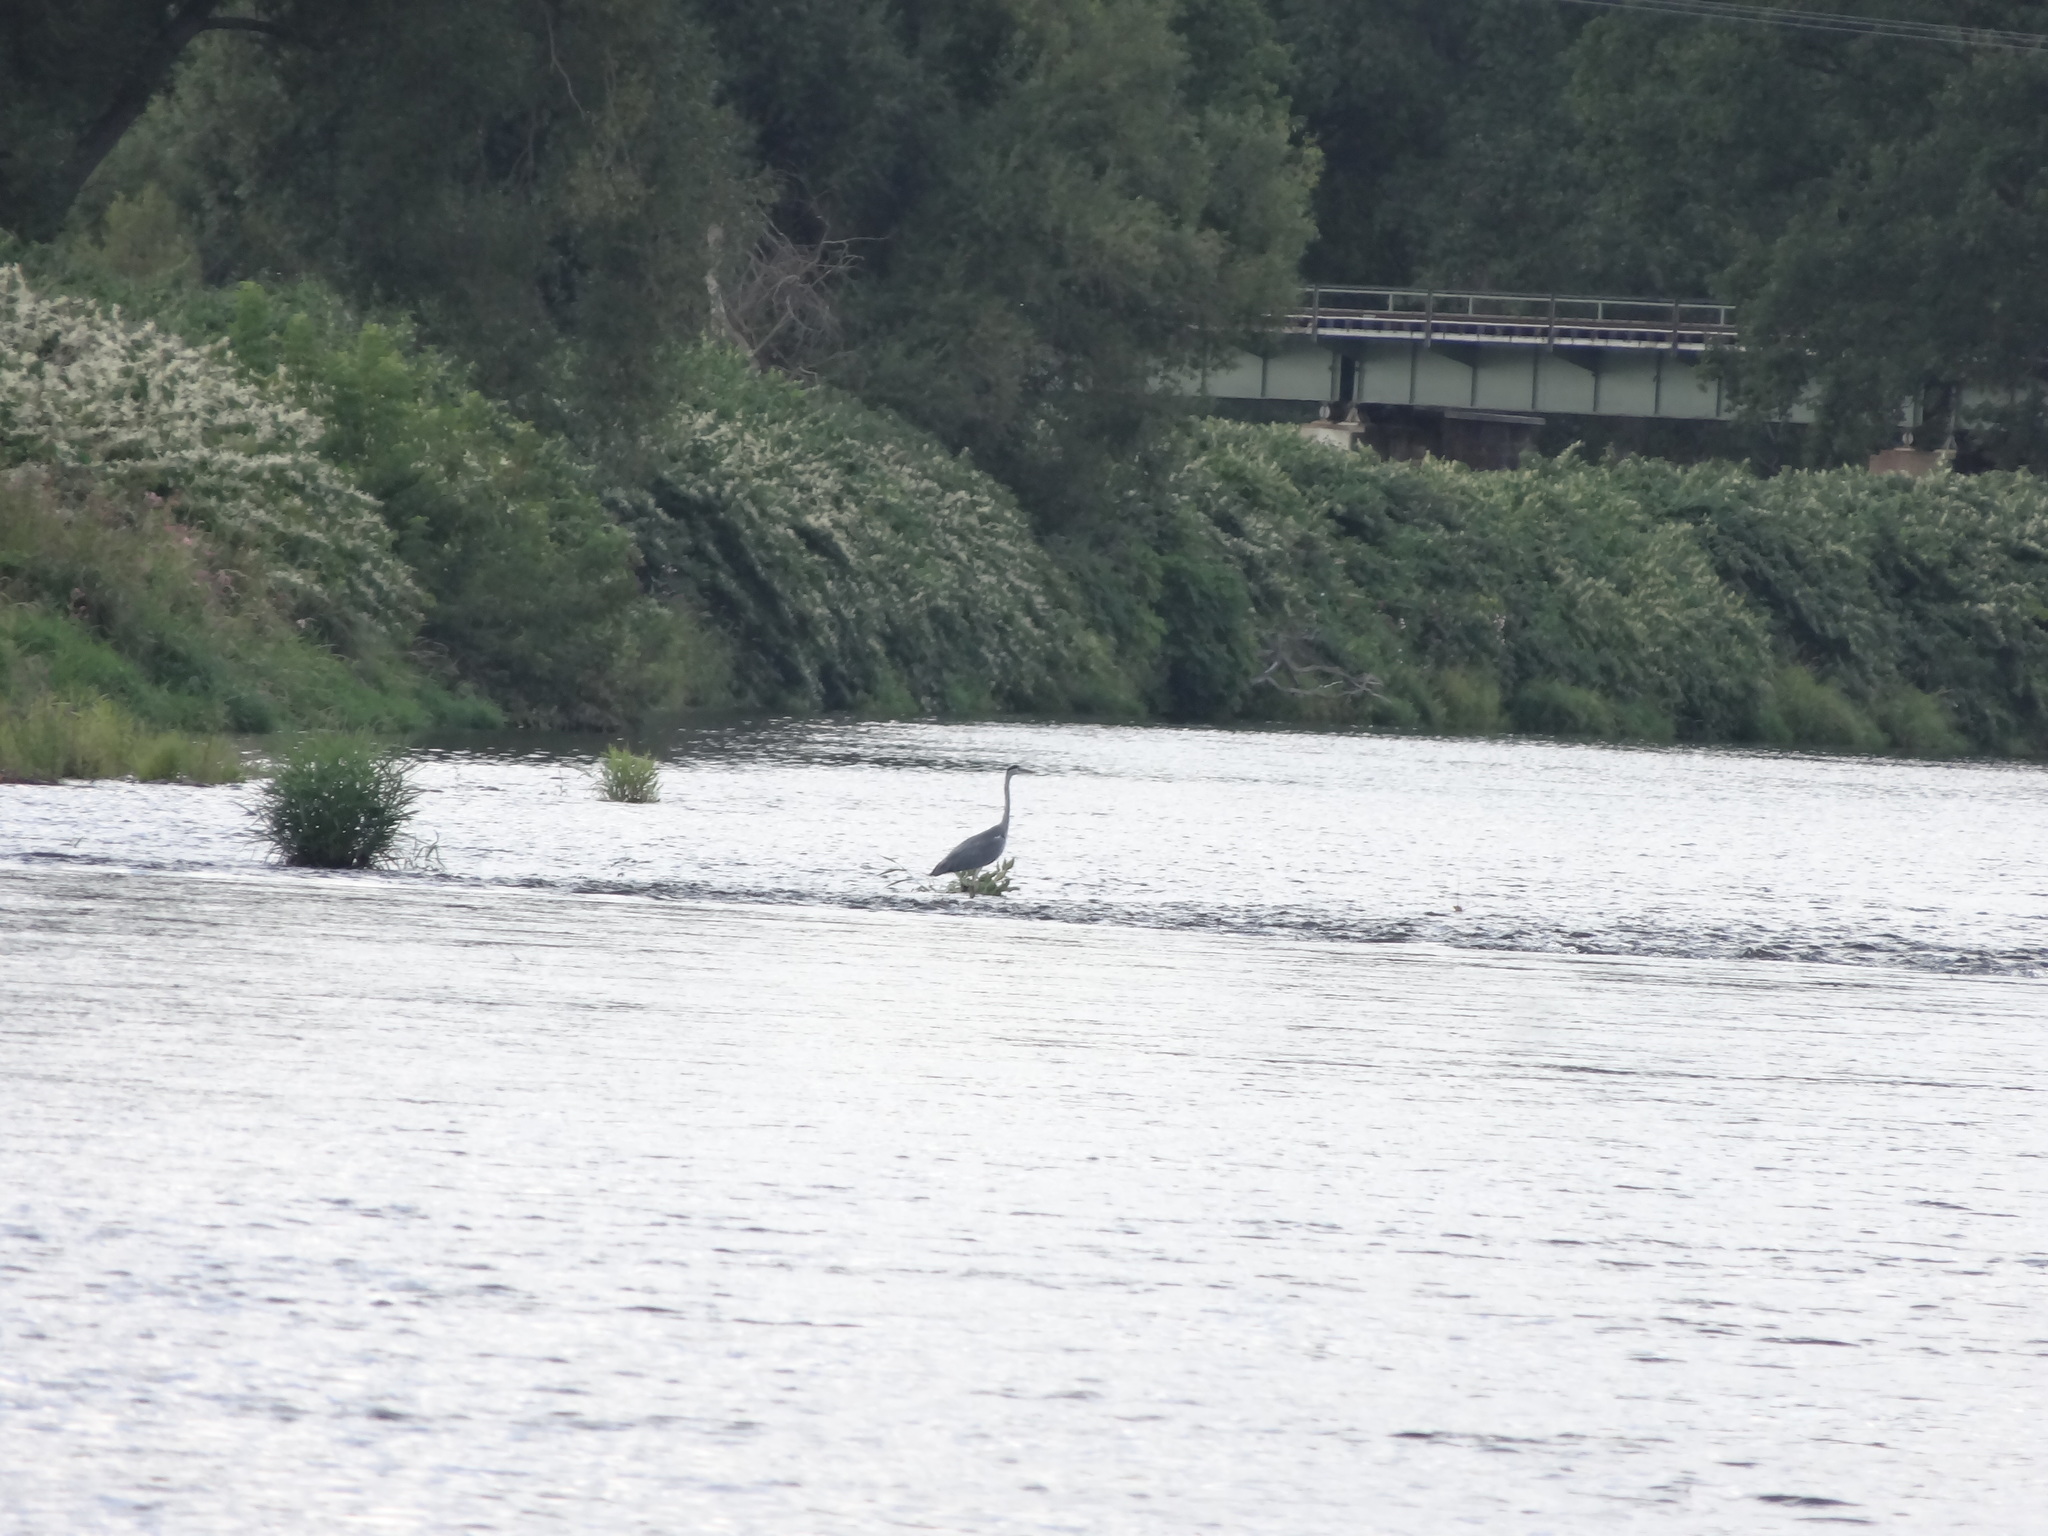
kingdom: Animalia
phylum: Chordata
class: Aves
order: Pelecaniformes
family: Ardeidae
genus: Ardea
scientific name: Ardea cinerea
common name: Grey heron
